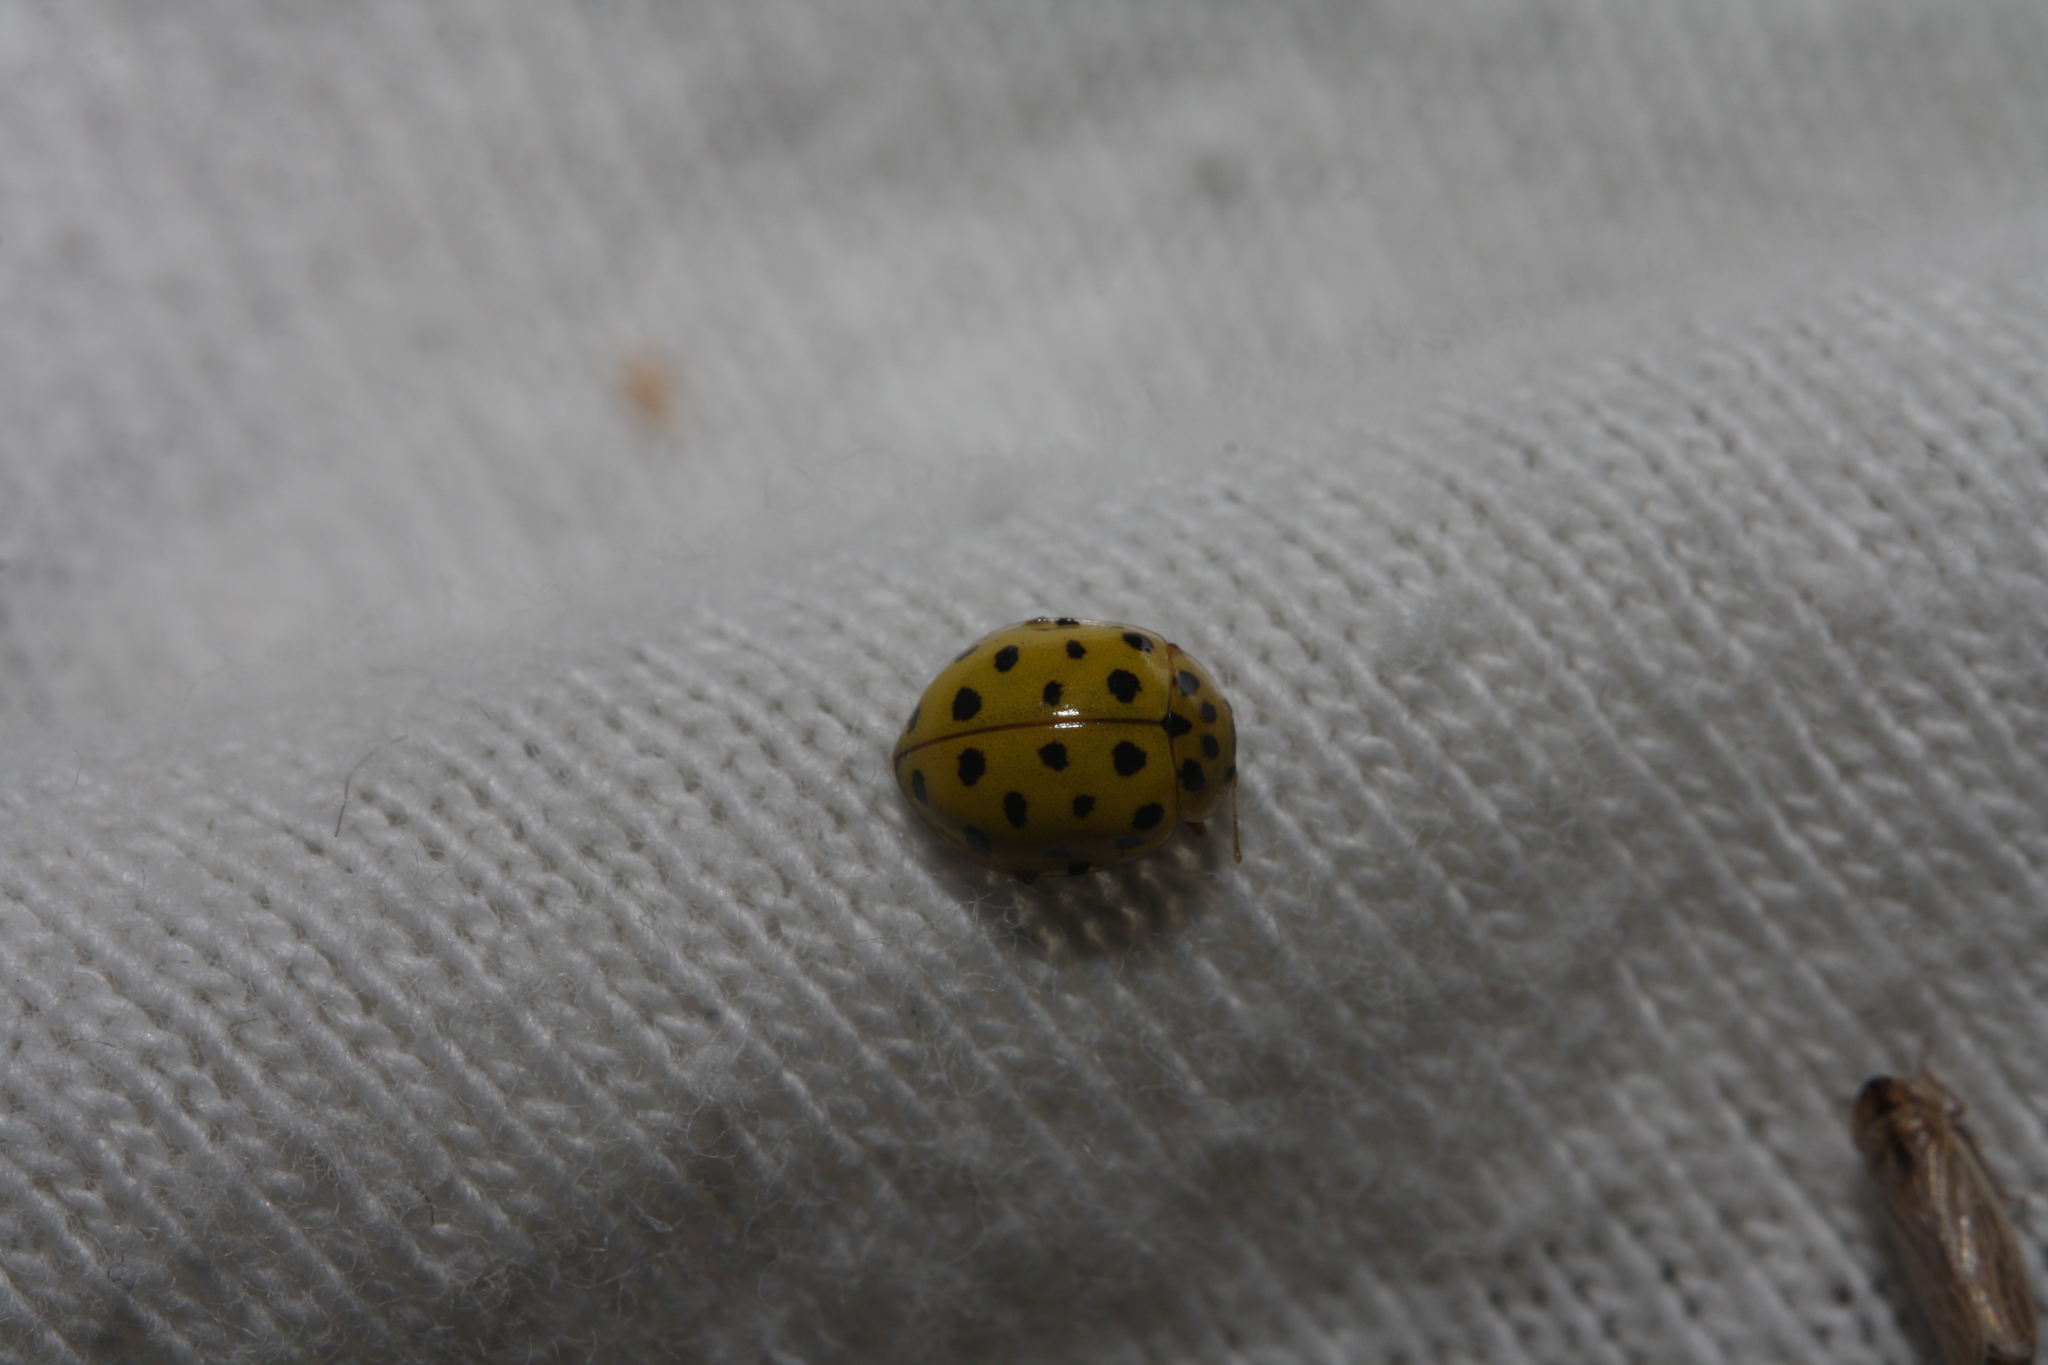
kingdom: Animalia
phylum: Arthropoda
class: Insecta
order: Coleoptera
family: Coccinellidae
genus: Psyllobora
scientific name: Psyllobora vigintiduopunctata
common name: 22-spot ladybird
